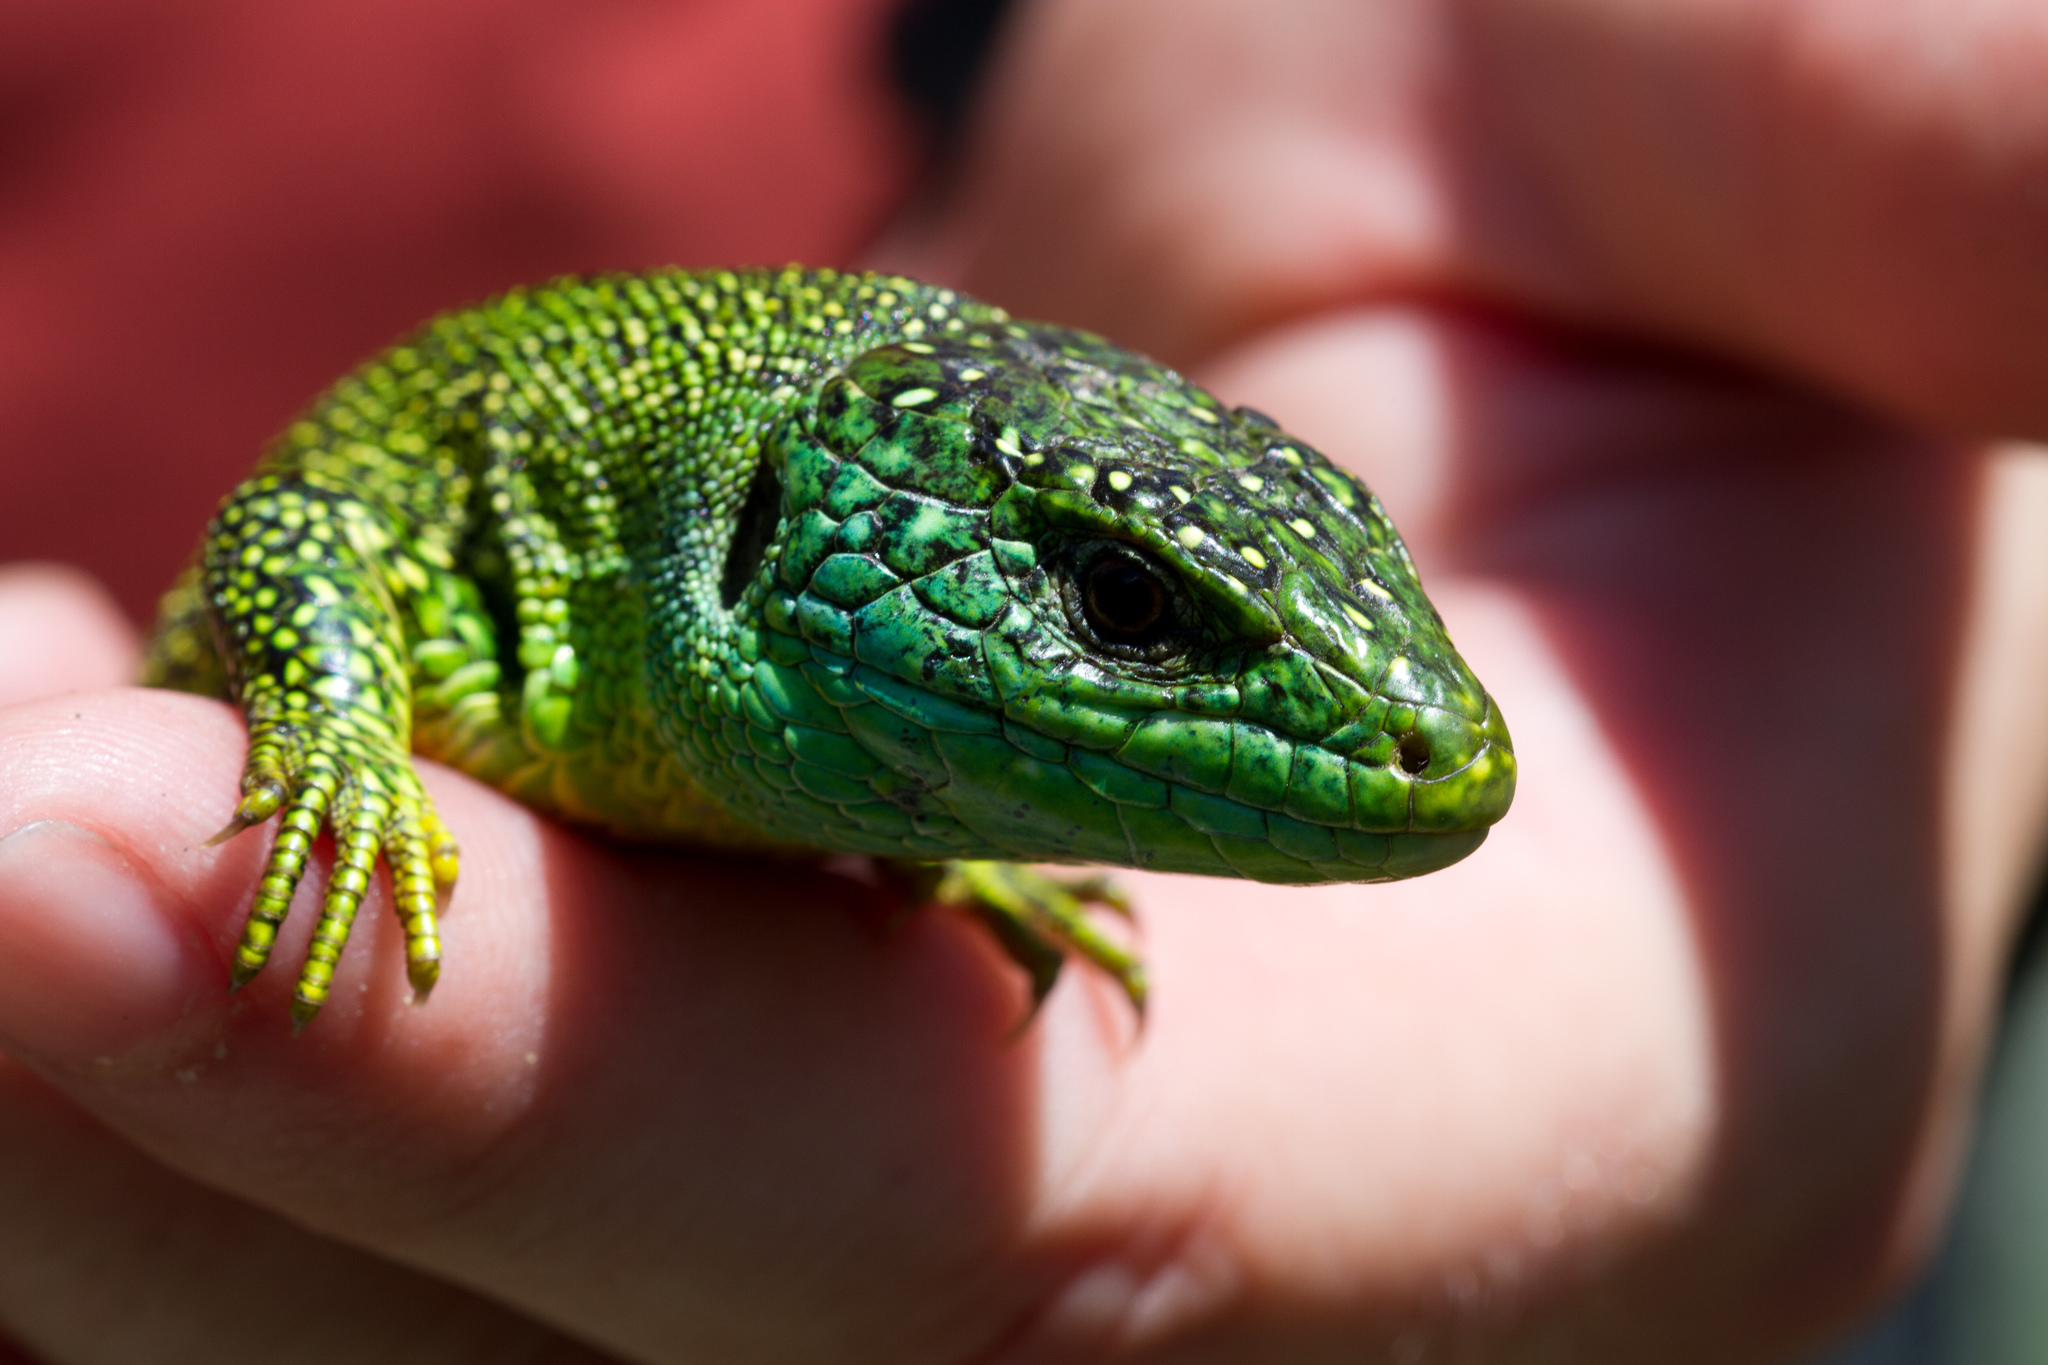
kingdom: Animalia
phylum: Chordata
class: Squamata
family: Lacertidae
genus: Lacerta
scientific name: Lacerta bilineata
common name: Western green lizard
